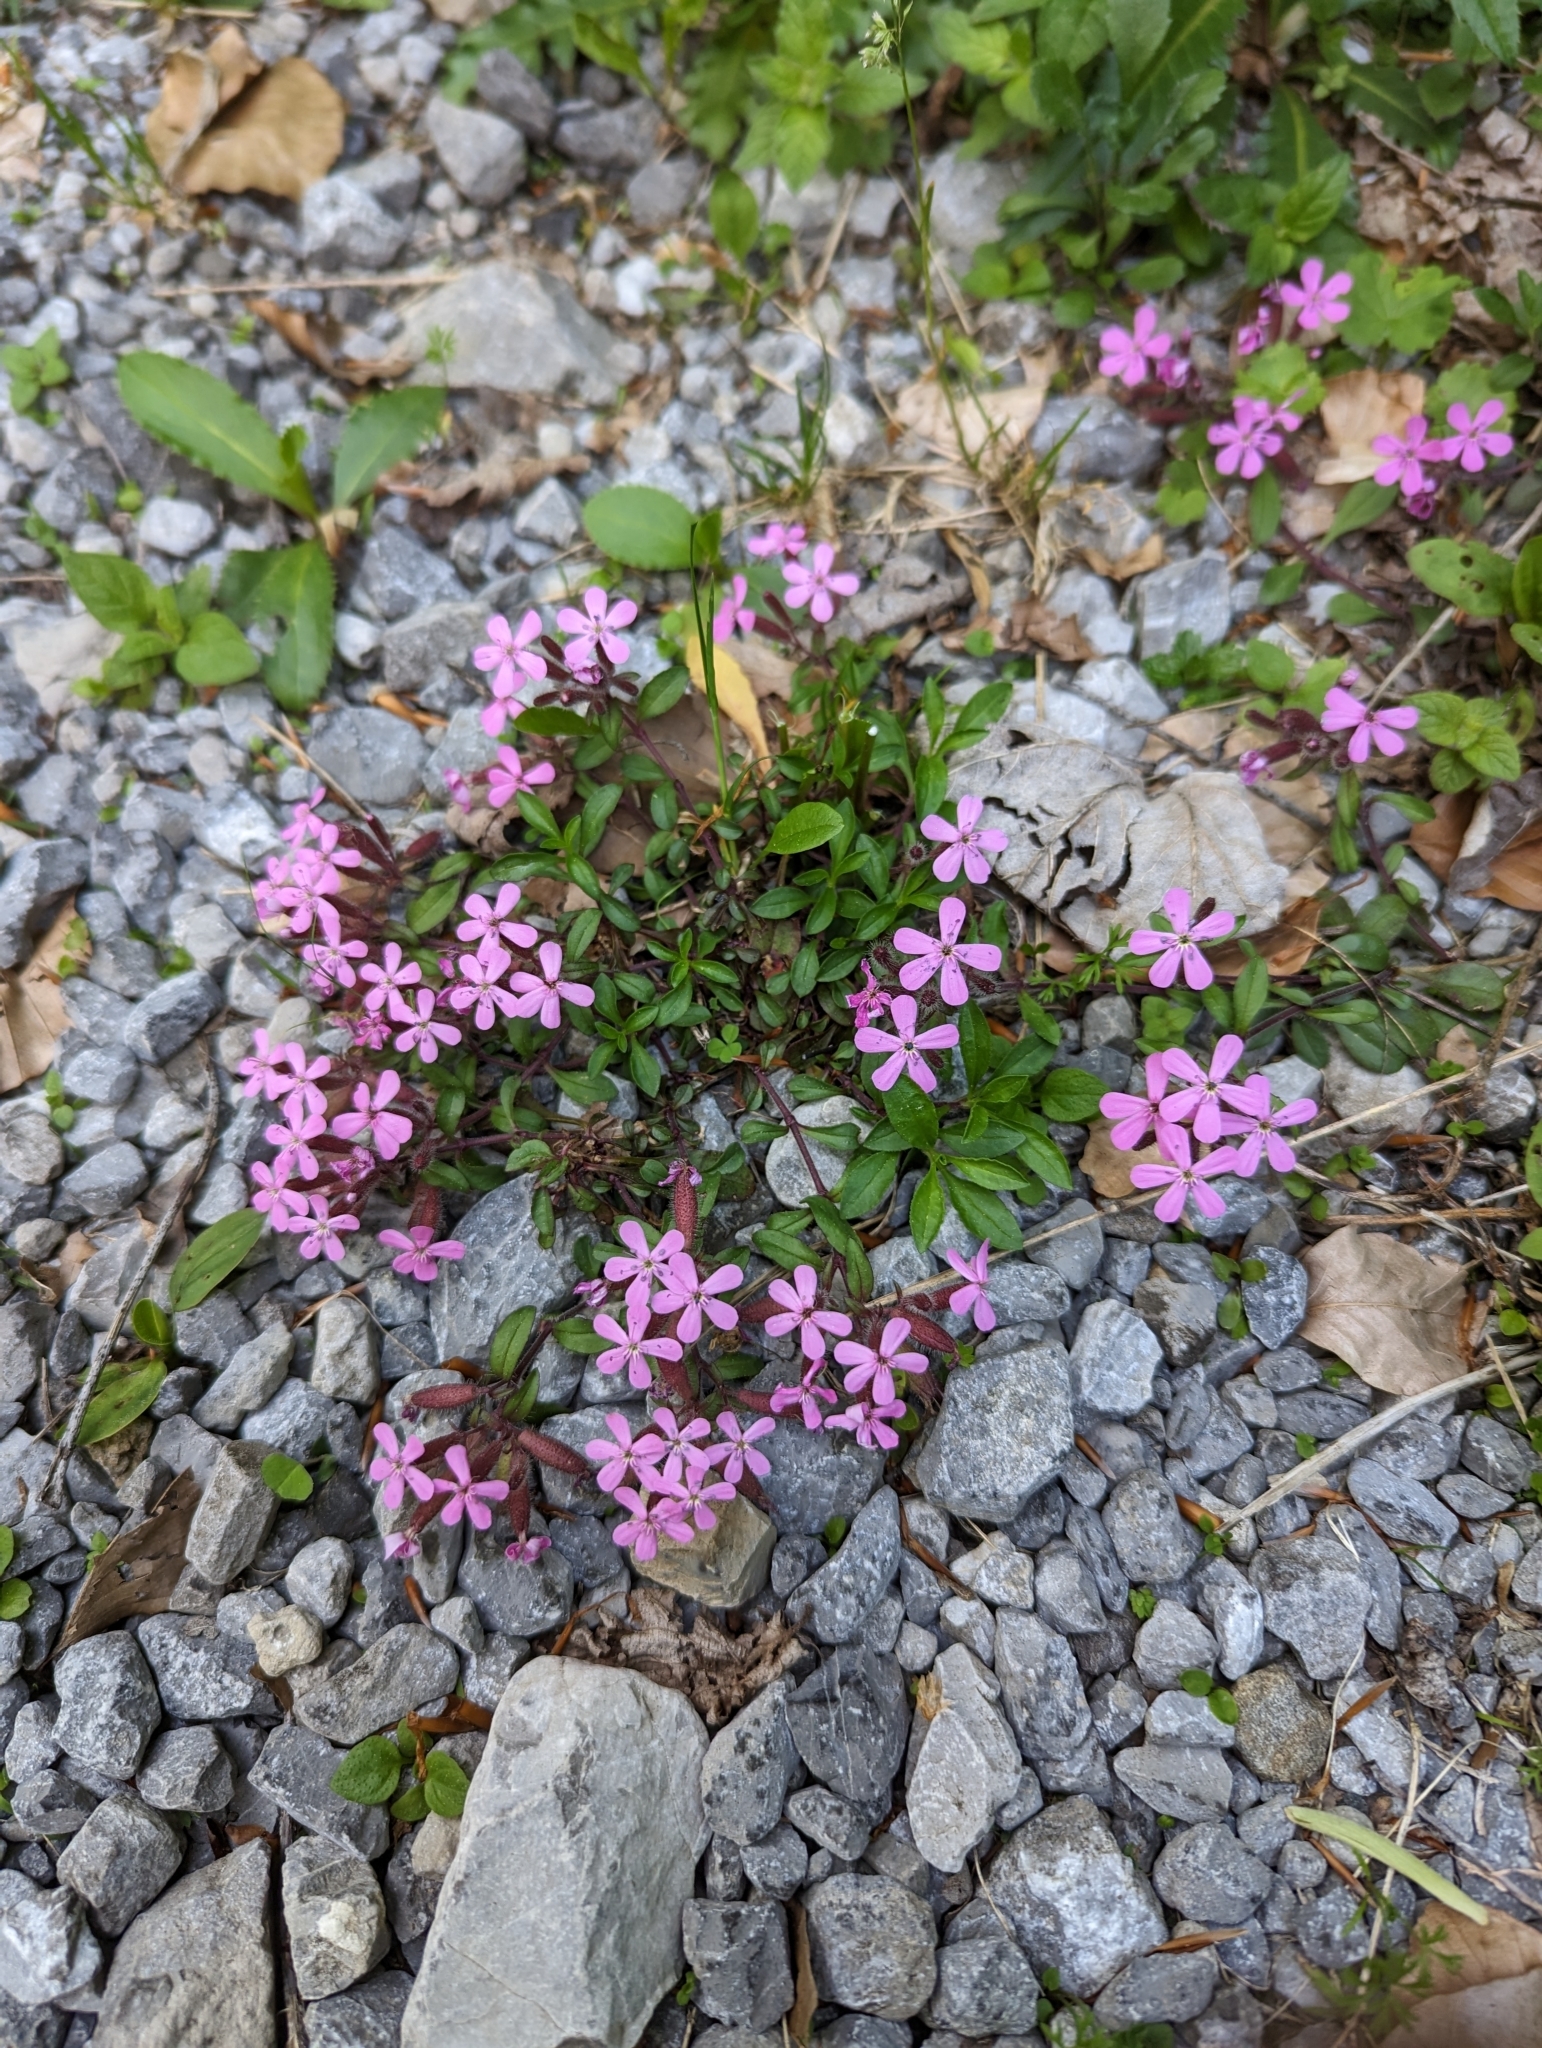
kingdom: Plantae
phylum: Tracheophyta
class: Magnoliopsida
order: Caryophyllales
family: Caryophyllaceae
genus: Saponaria
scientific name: Saponaria ocymoides
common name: Rock soapwort
